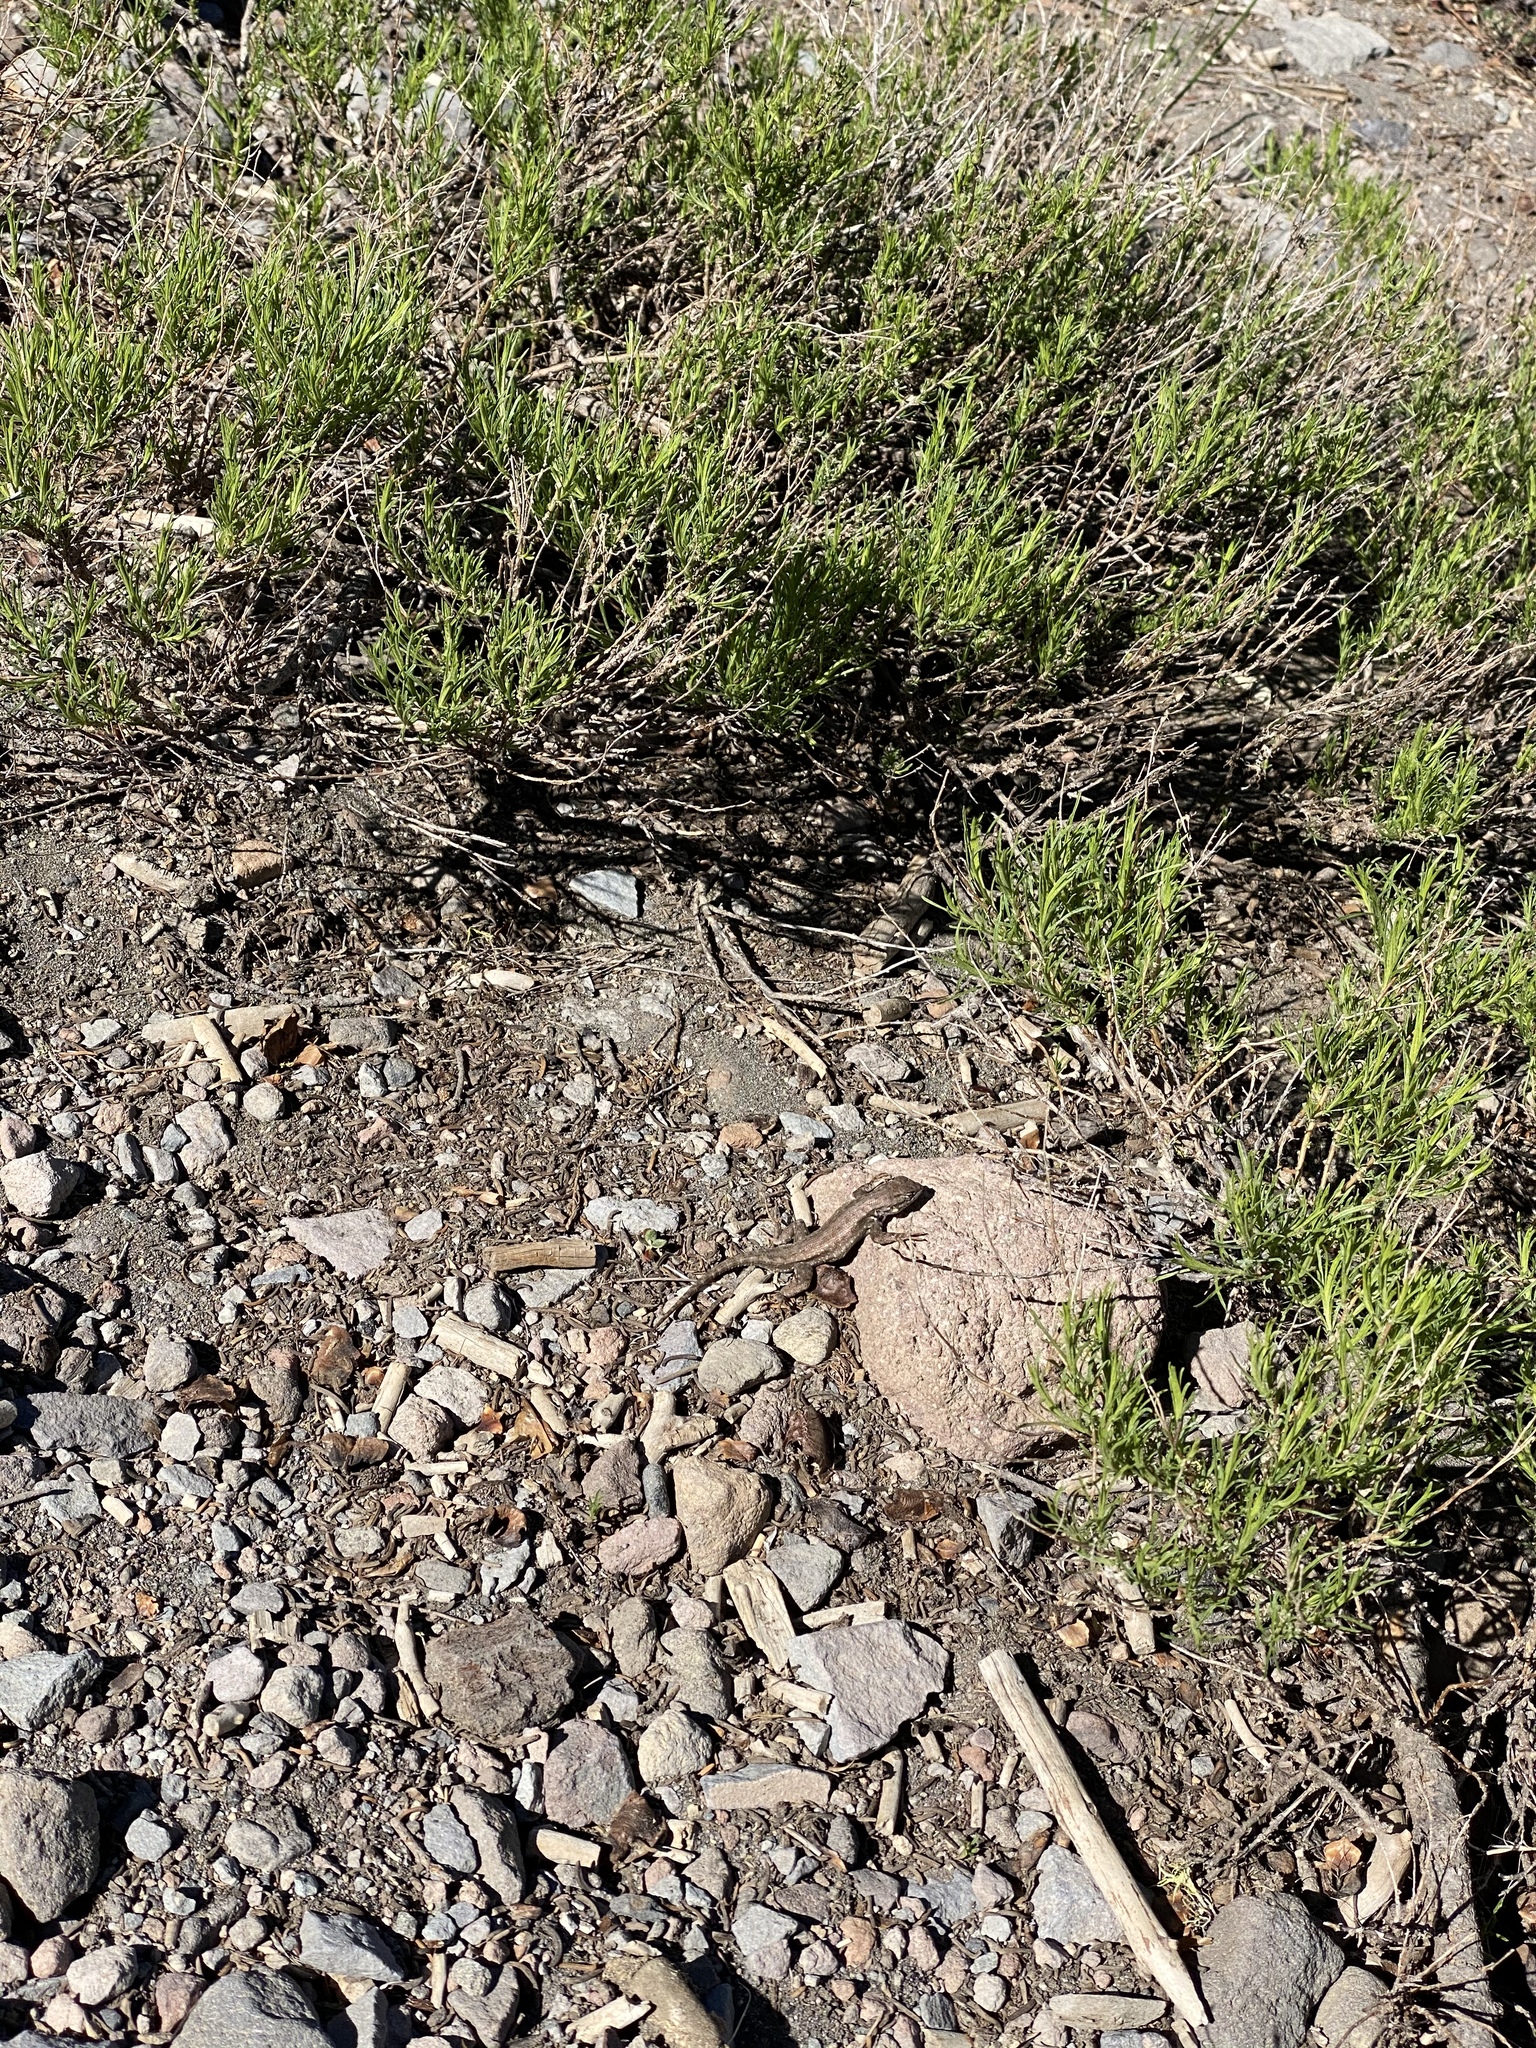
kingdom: Animalia
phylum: Chordata
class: Squamata
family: Phrynosomatidae
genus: Sceloporus
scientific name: Sceloporus graciosus
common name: Sagebrush lizard
